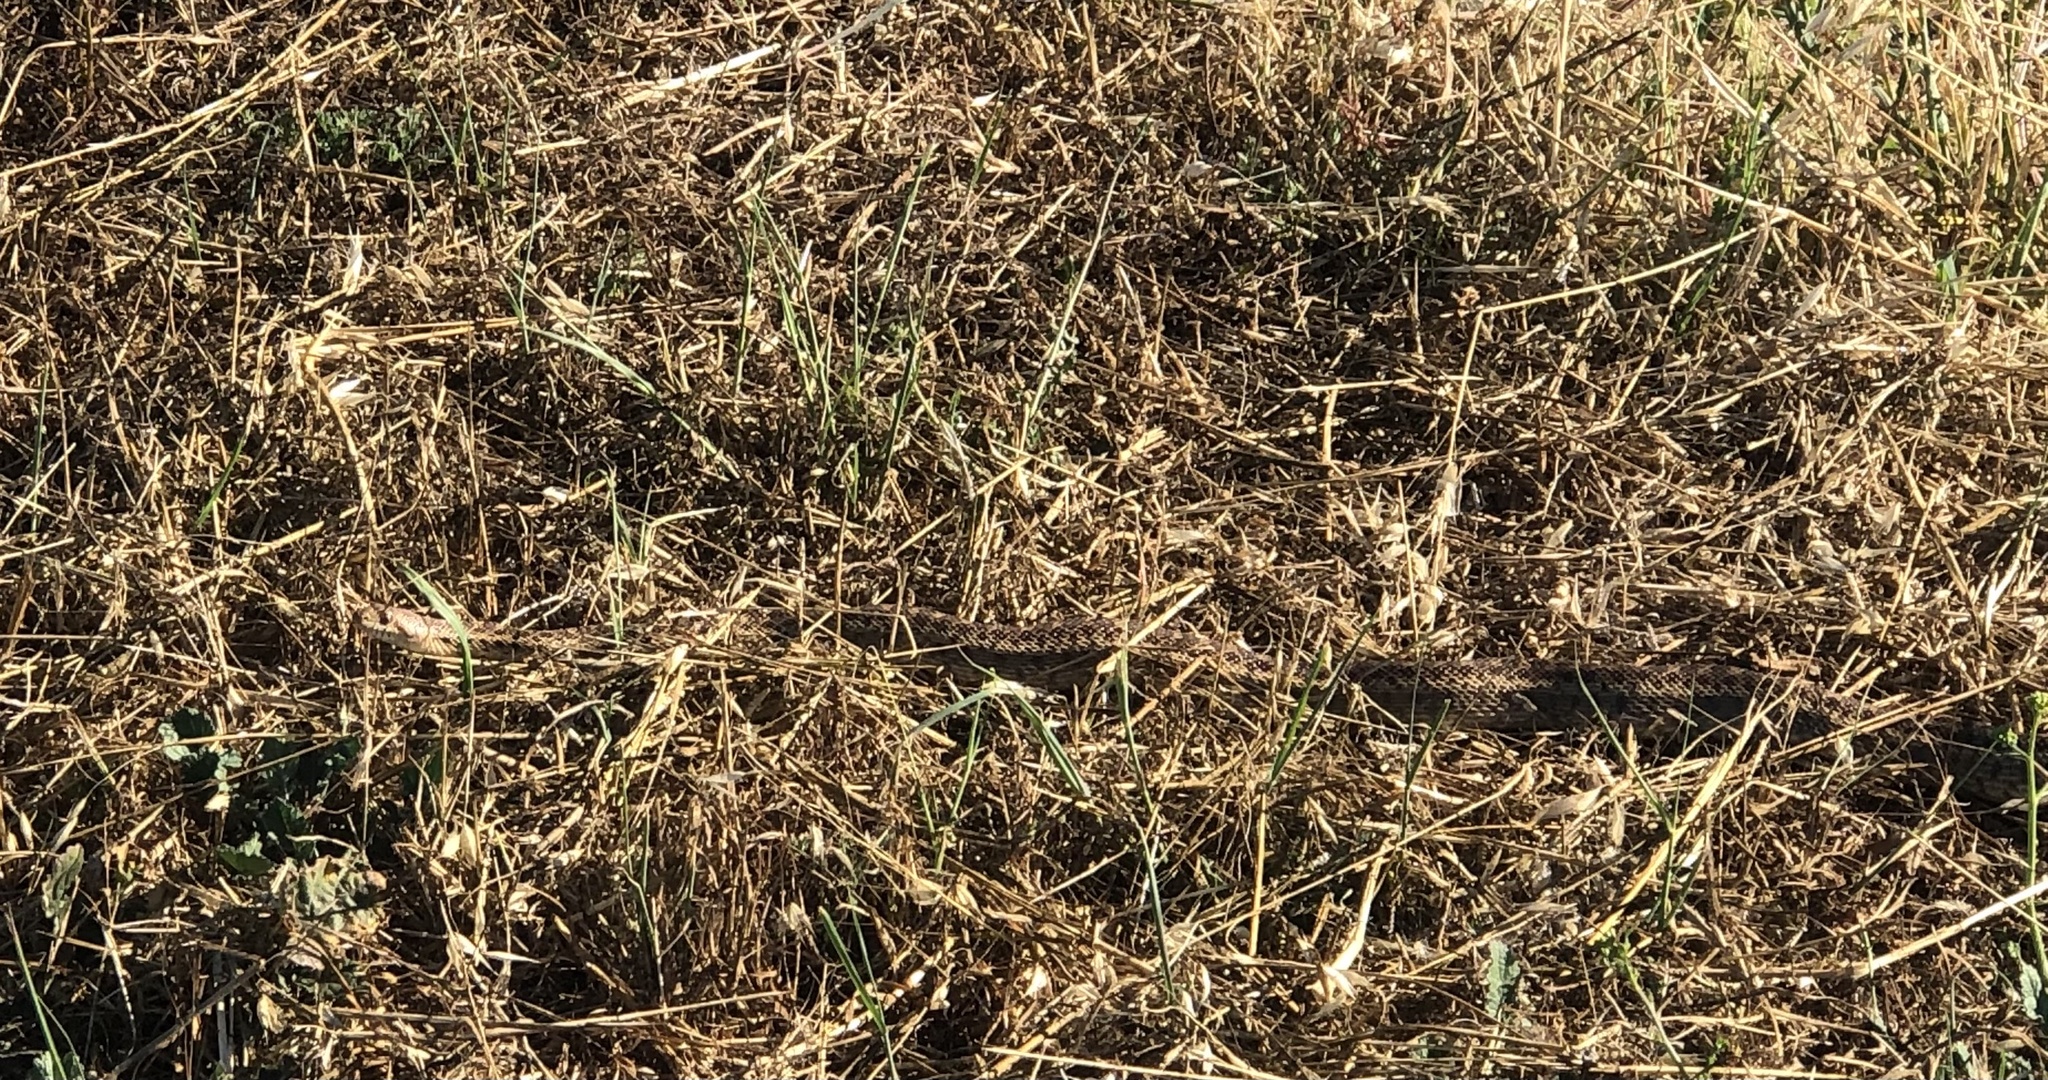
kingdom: Animalia
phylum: Chordata
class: Squamata
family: Colubridae
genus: Pituophis
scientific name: Pituophis catenifer
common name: Gopher snake
